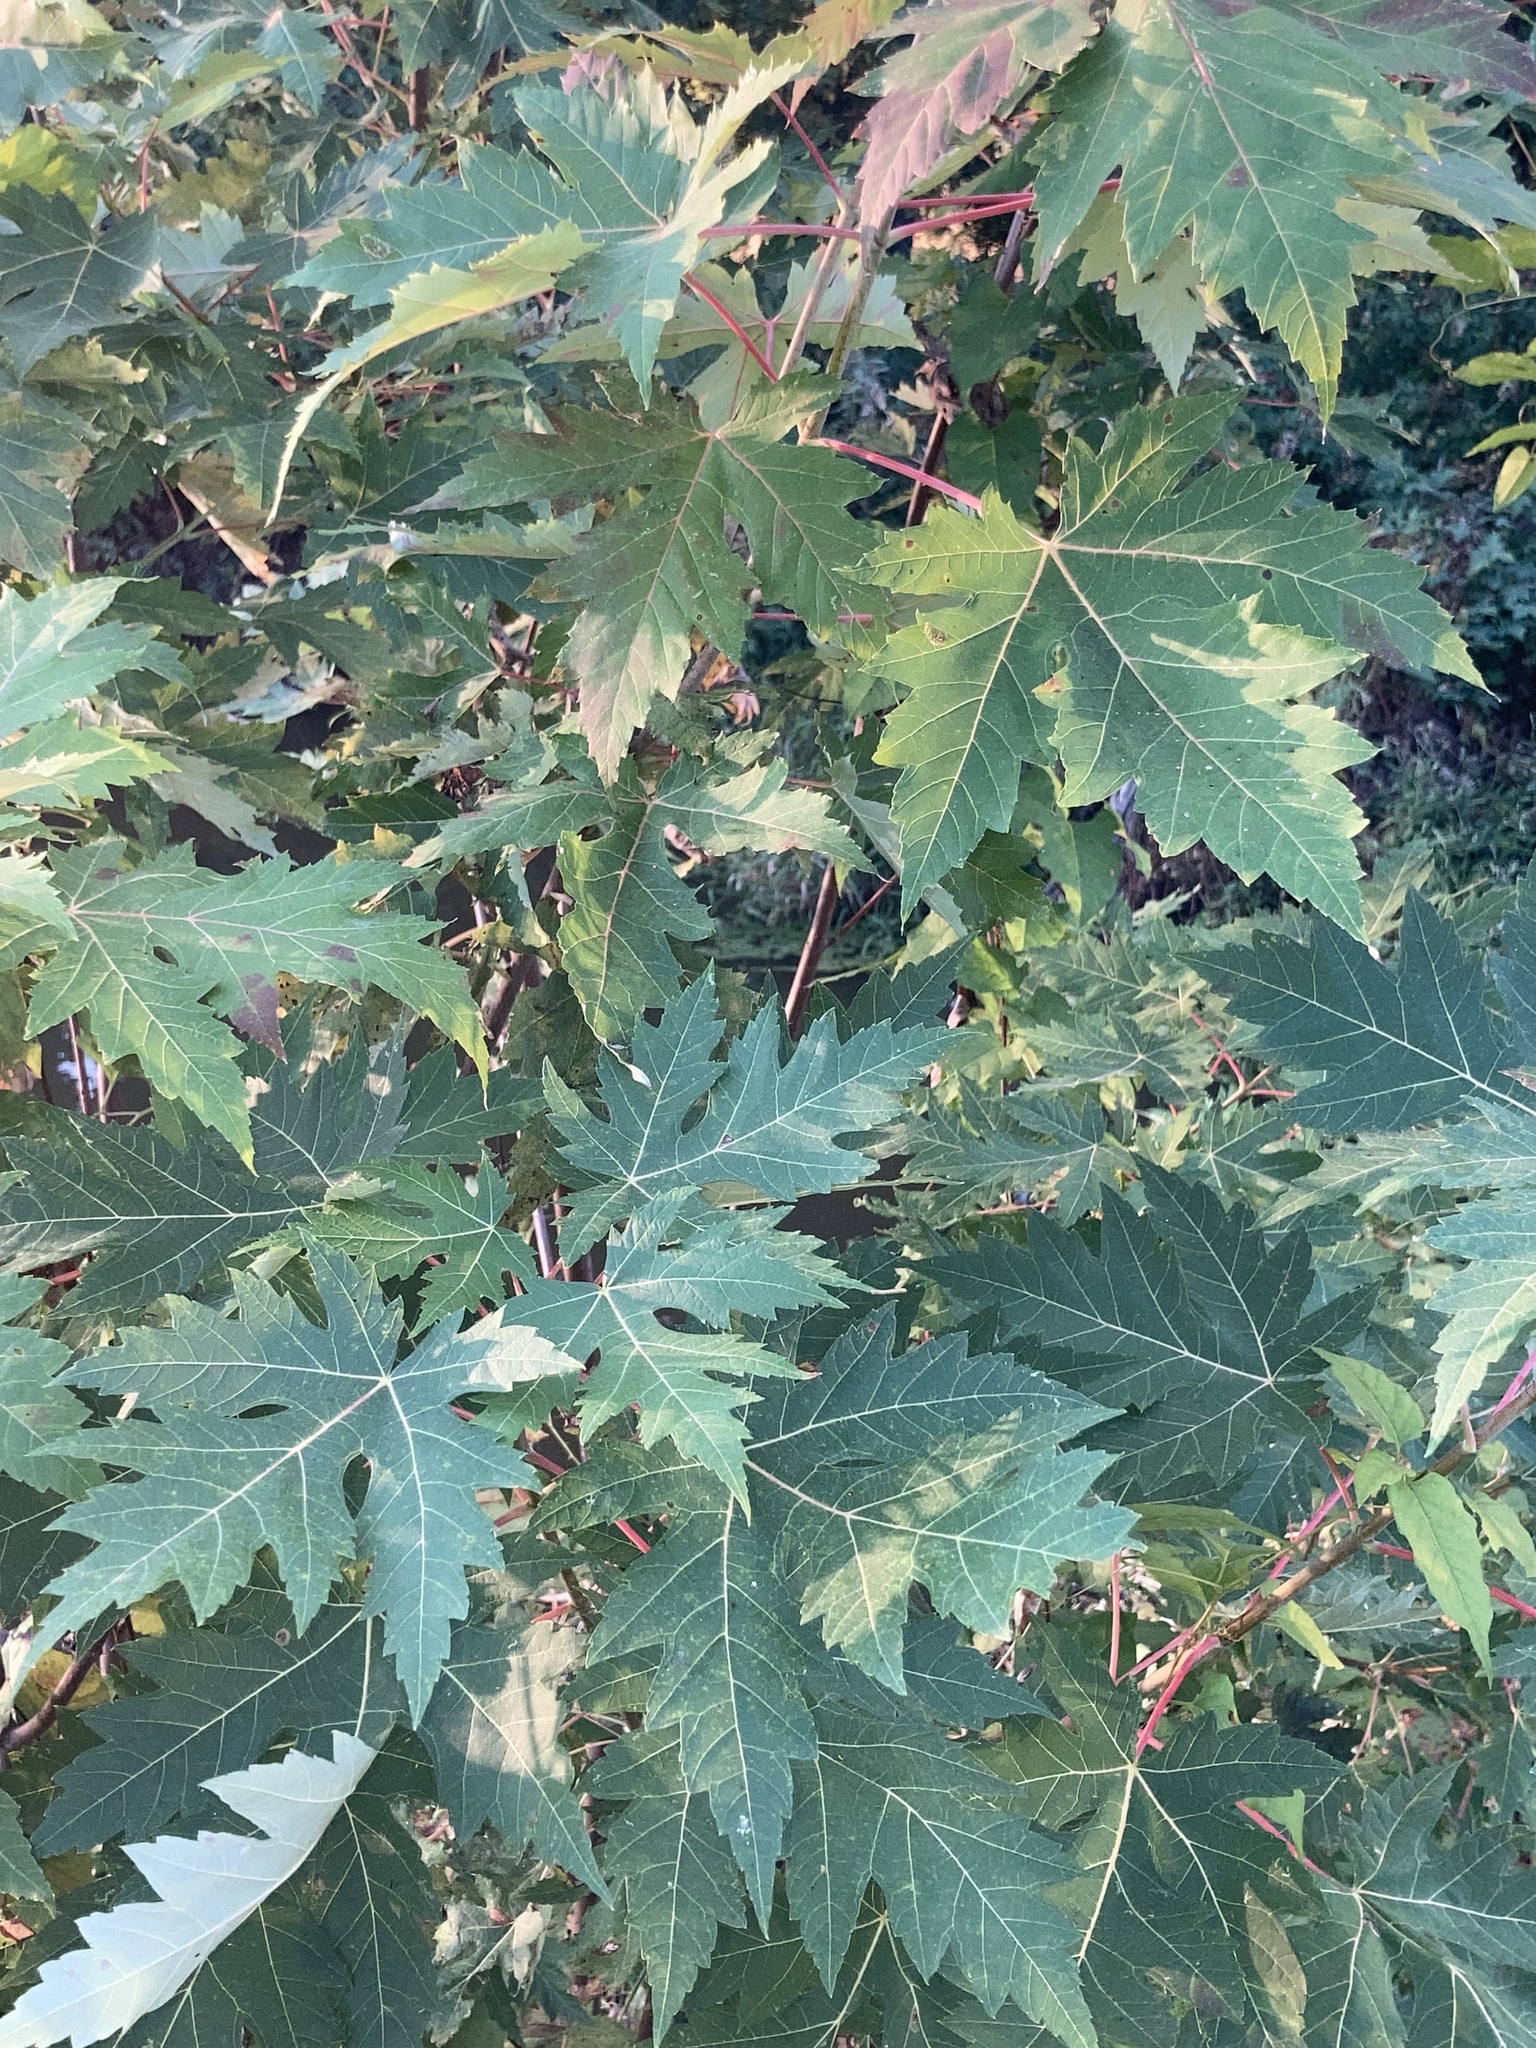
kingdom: Plantae
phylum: Tracheophyta
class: Magnoliopsida
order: Sapindales
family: Sapindaceae
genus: Acer
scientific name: Acer saccharinum
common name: Silver maple
